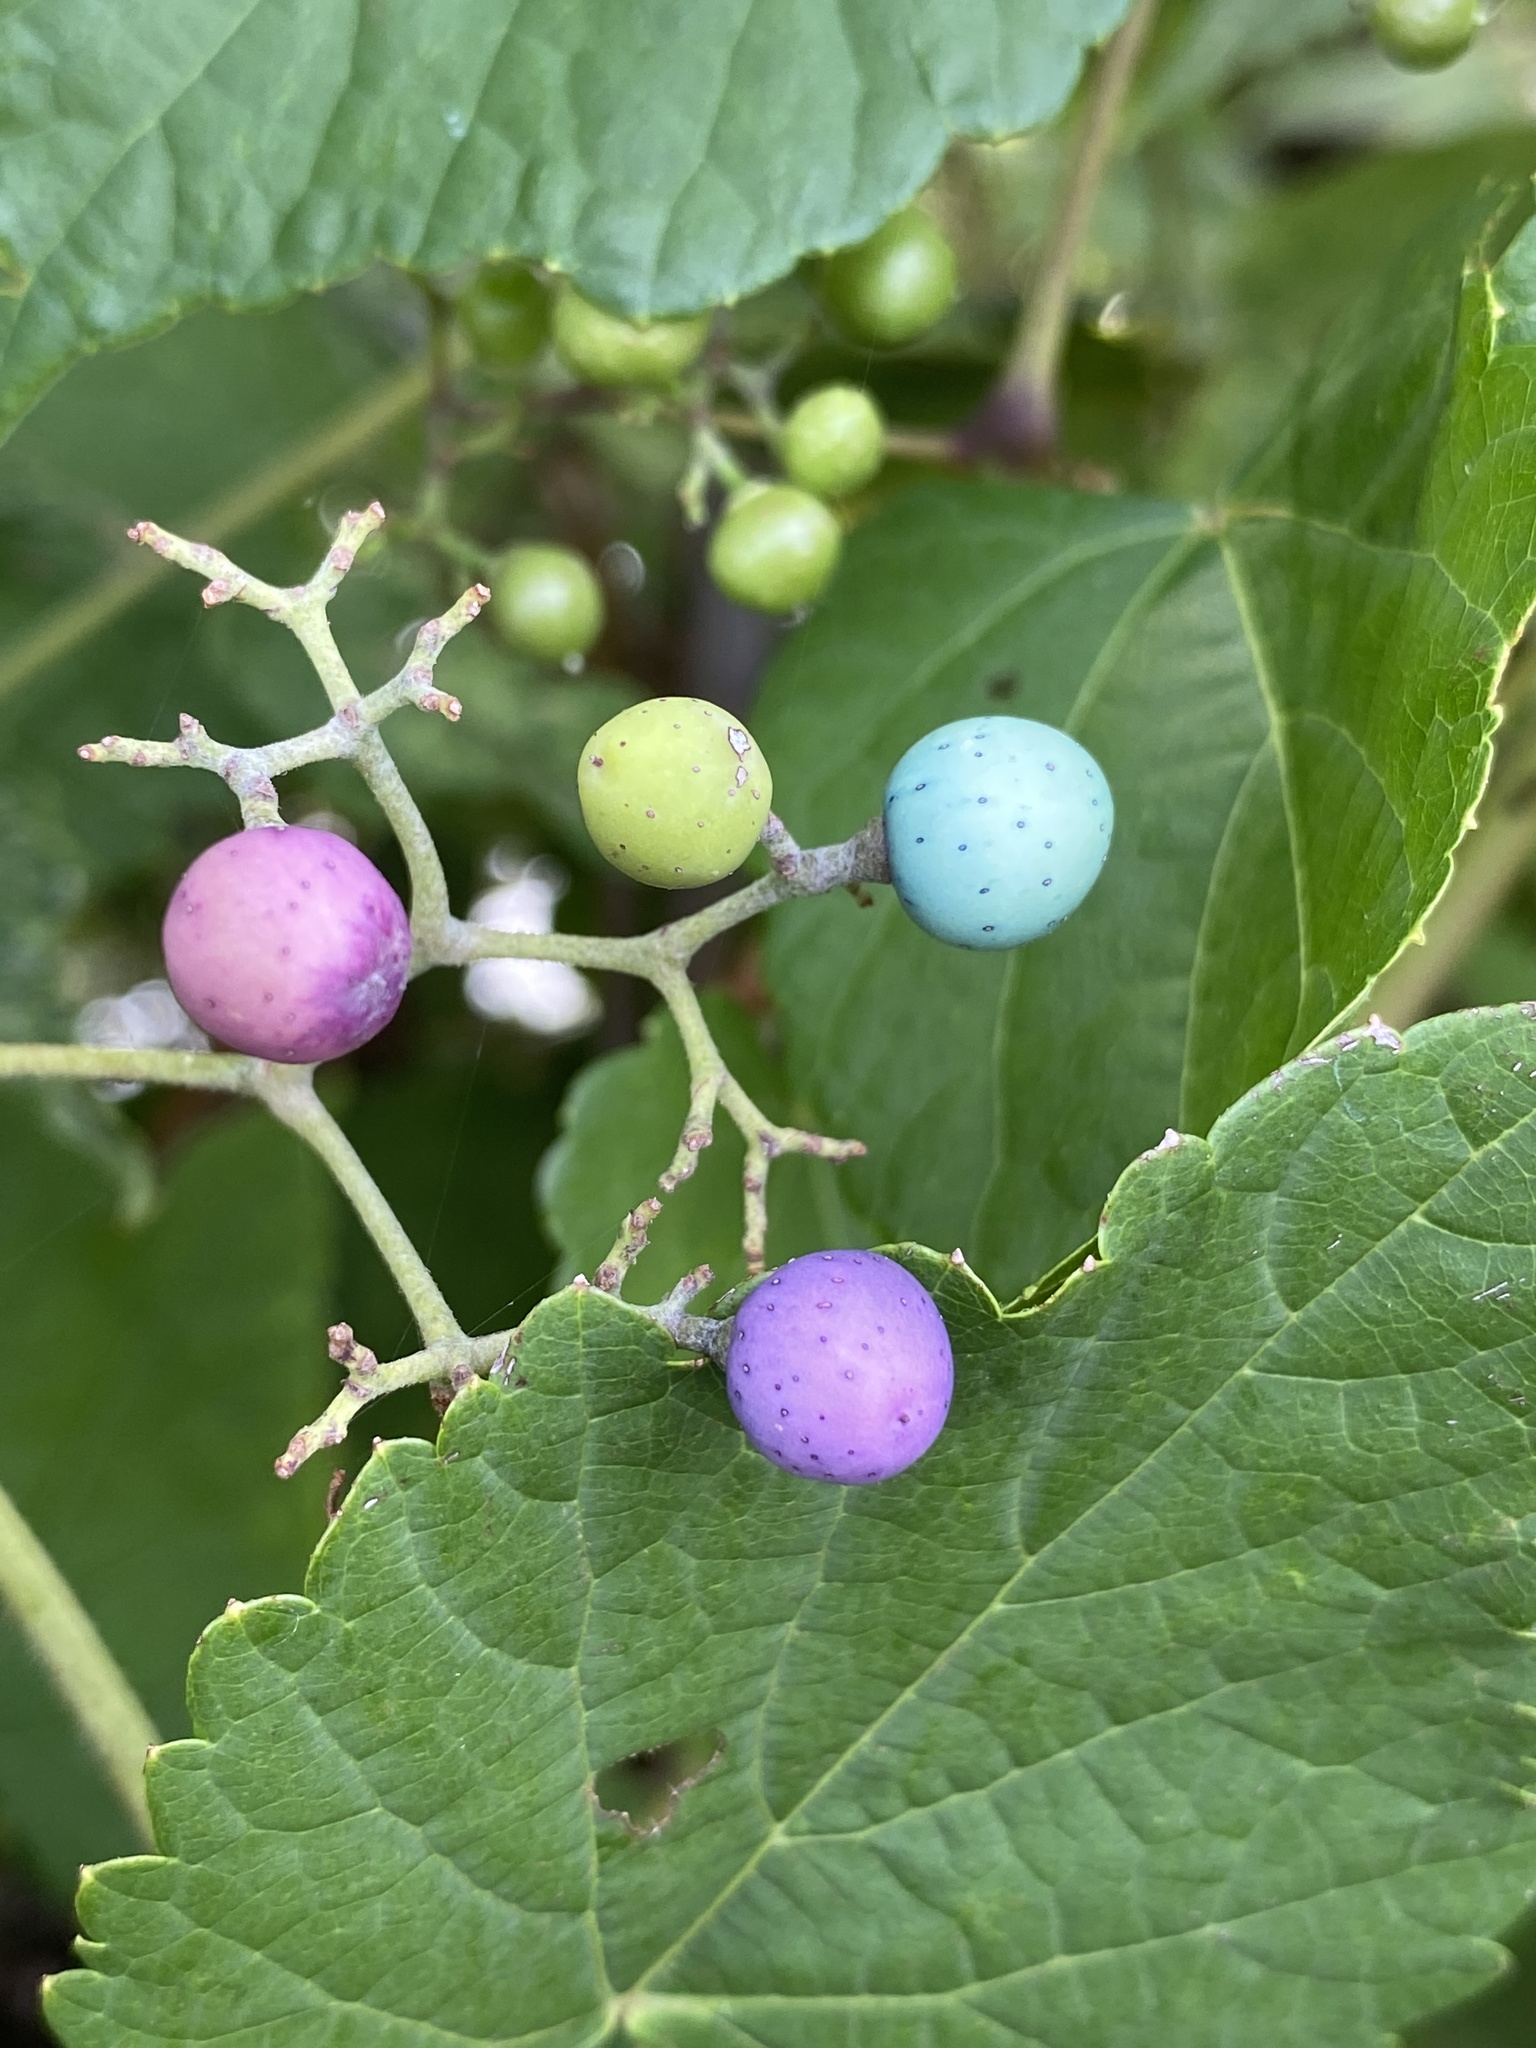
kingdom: Plantae
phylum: Tracheophyta
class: Magnoliopsida
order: Vitales
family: Vitaceae
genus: Ampelopsis
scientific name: Ampelopsis glandulosa
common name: Amur peppervine
